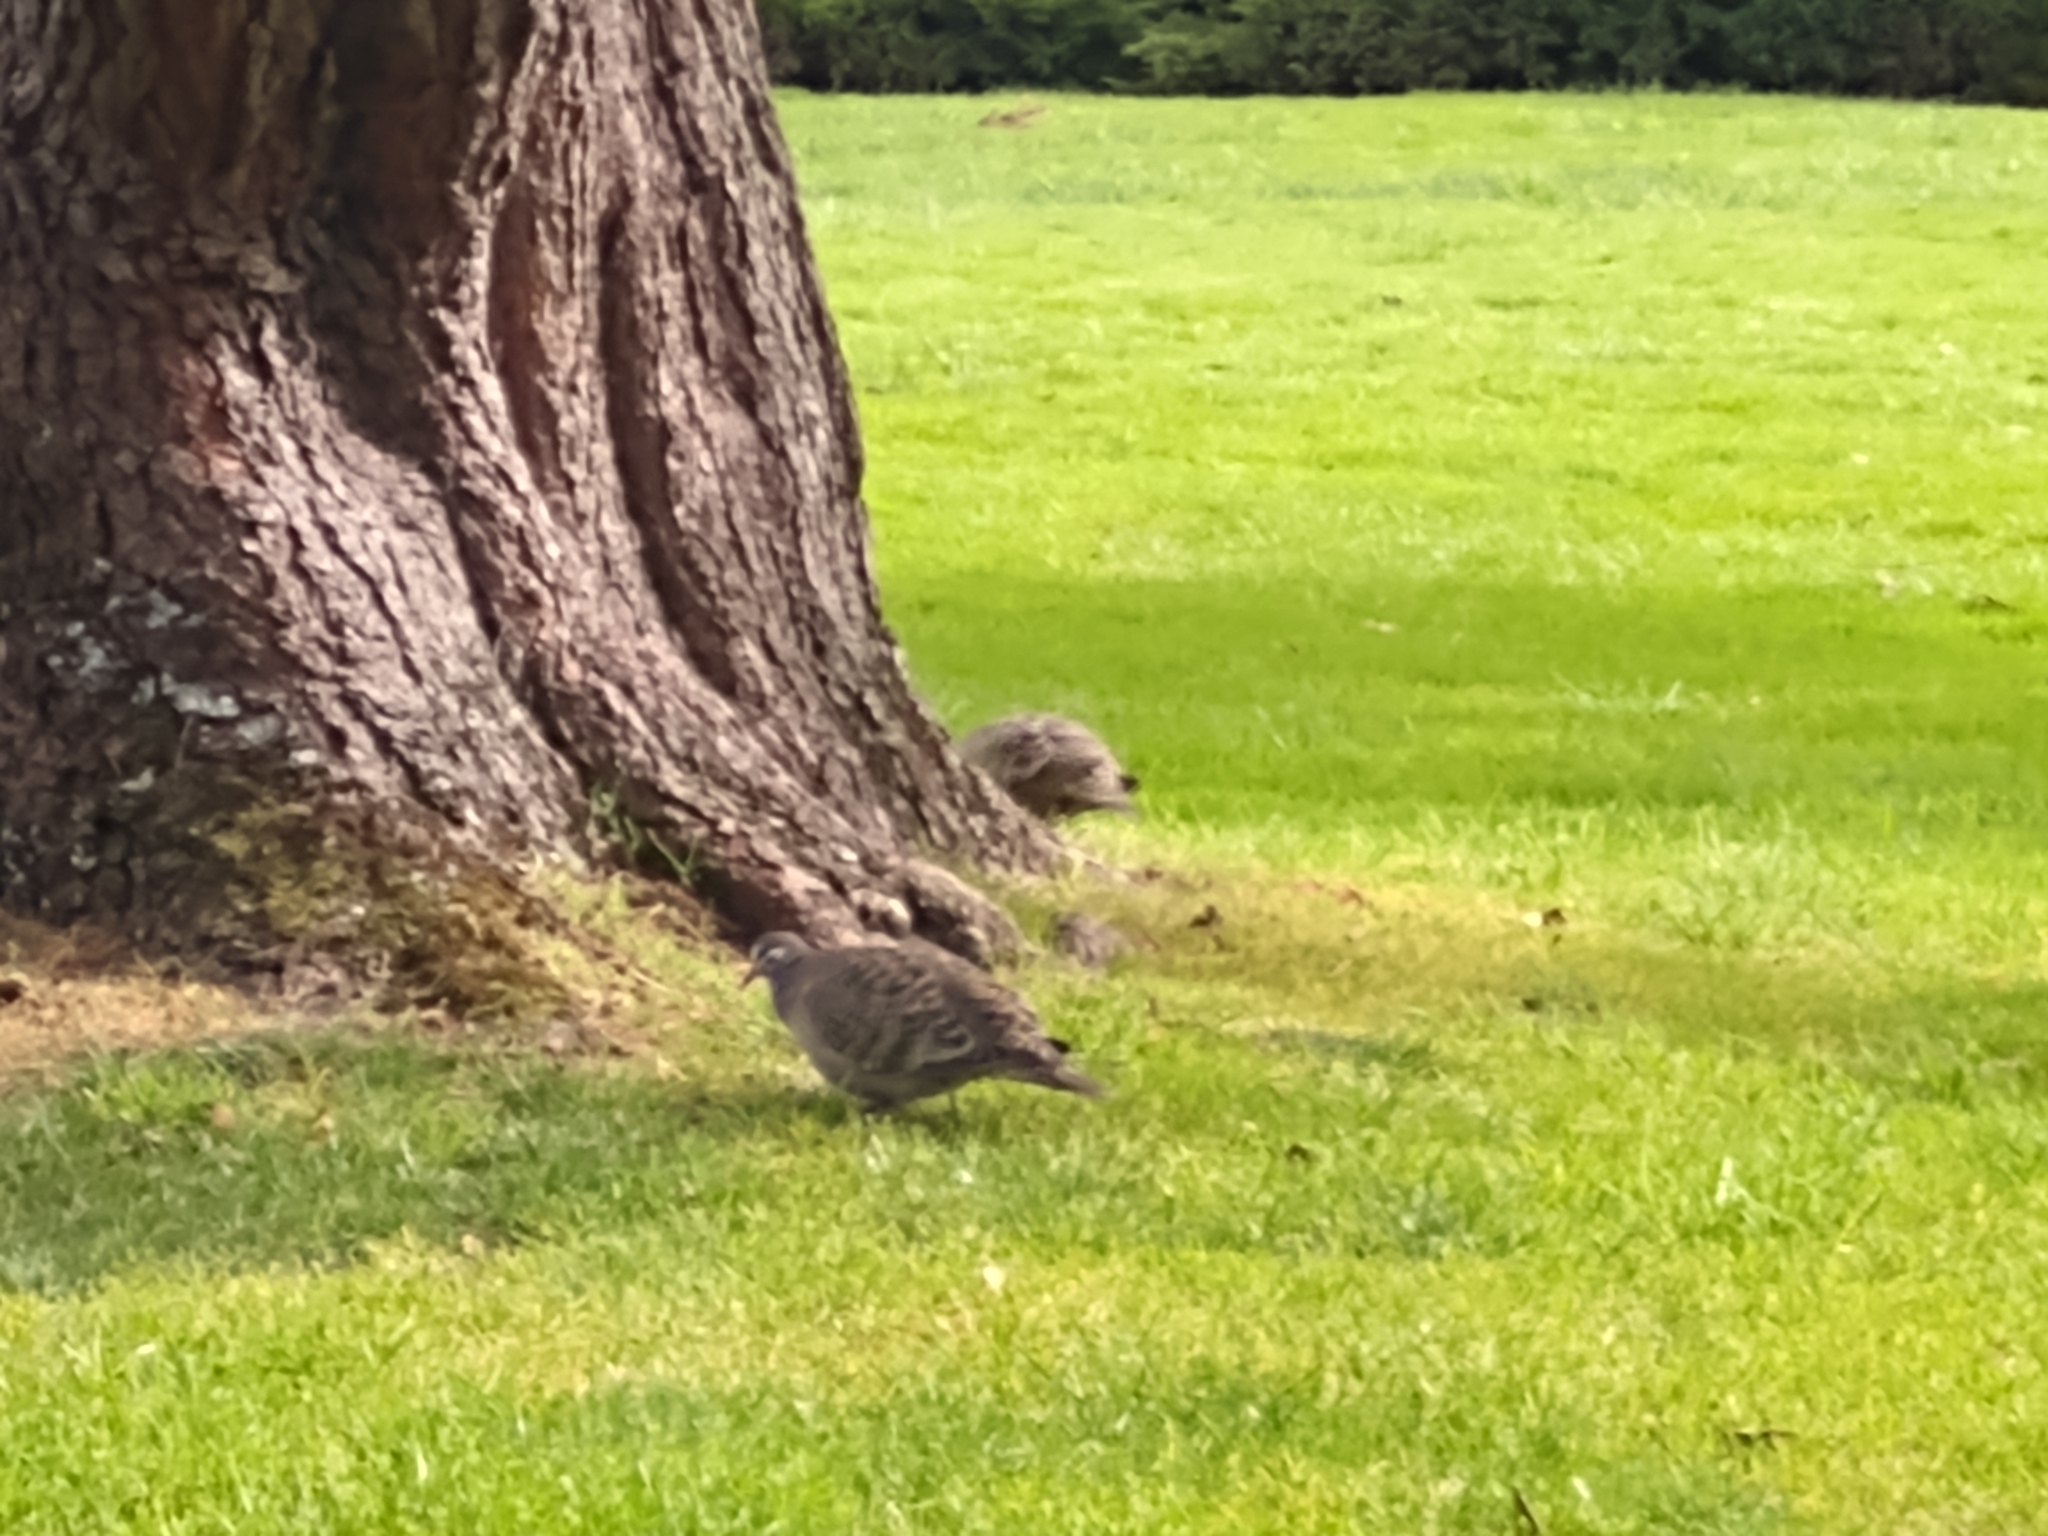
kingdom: Animalia
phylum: Chordata
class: Aves
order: Columbiformes
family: Columbidae
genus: Phaps
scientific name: Phaps chalcoptera
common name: Common bronzewing
